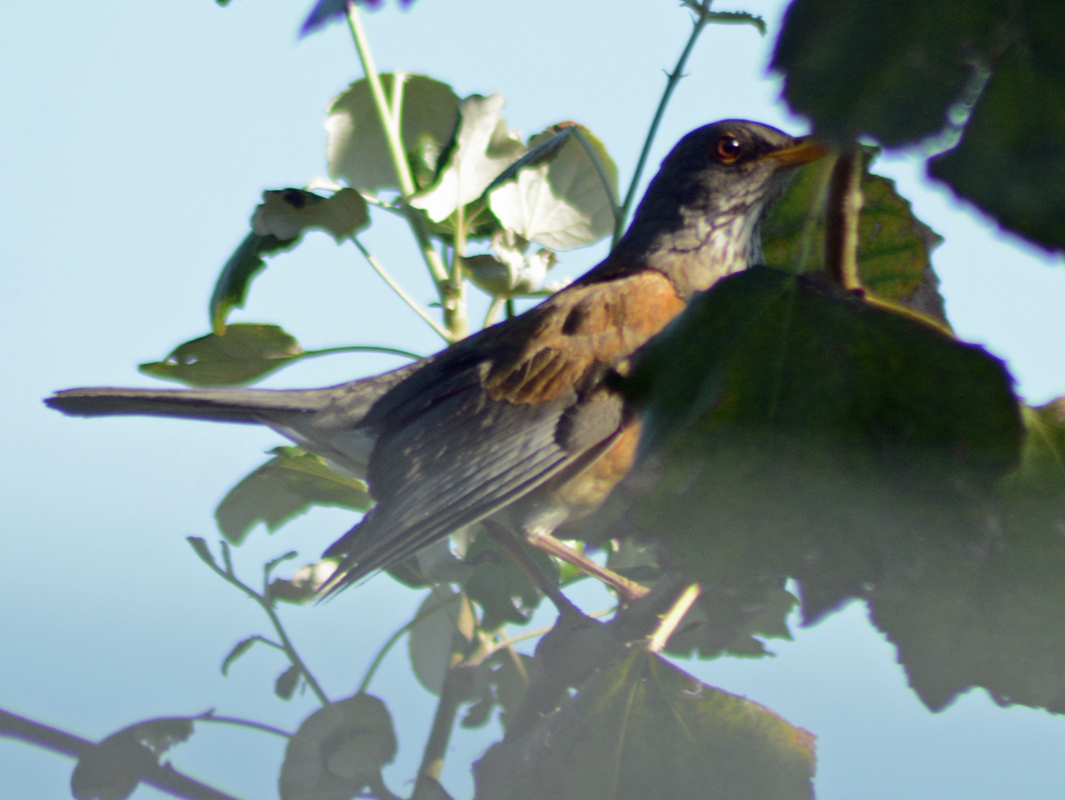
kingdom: Animalia
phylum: Chordata
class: Aves
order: Passeriformes
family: Turdidae
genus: Turdus
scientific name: Turdus rufopalliatus
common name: Rufous-backed robin
